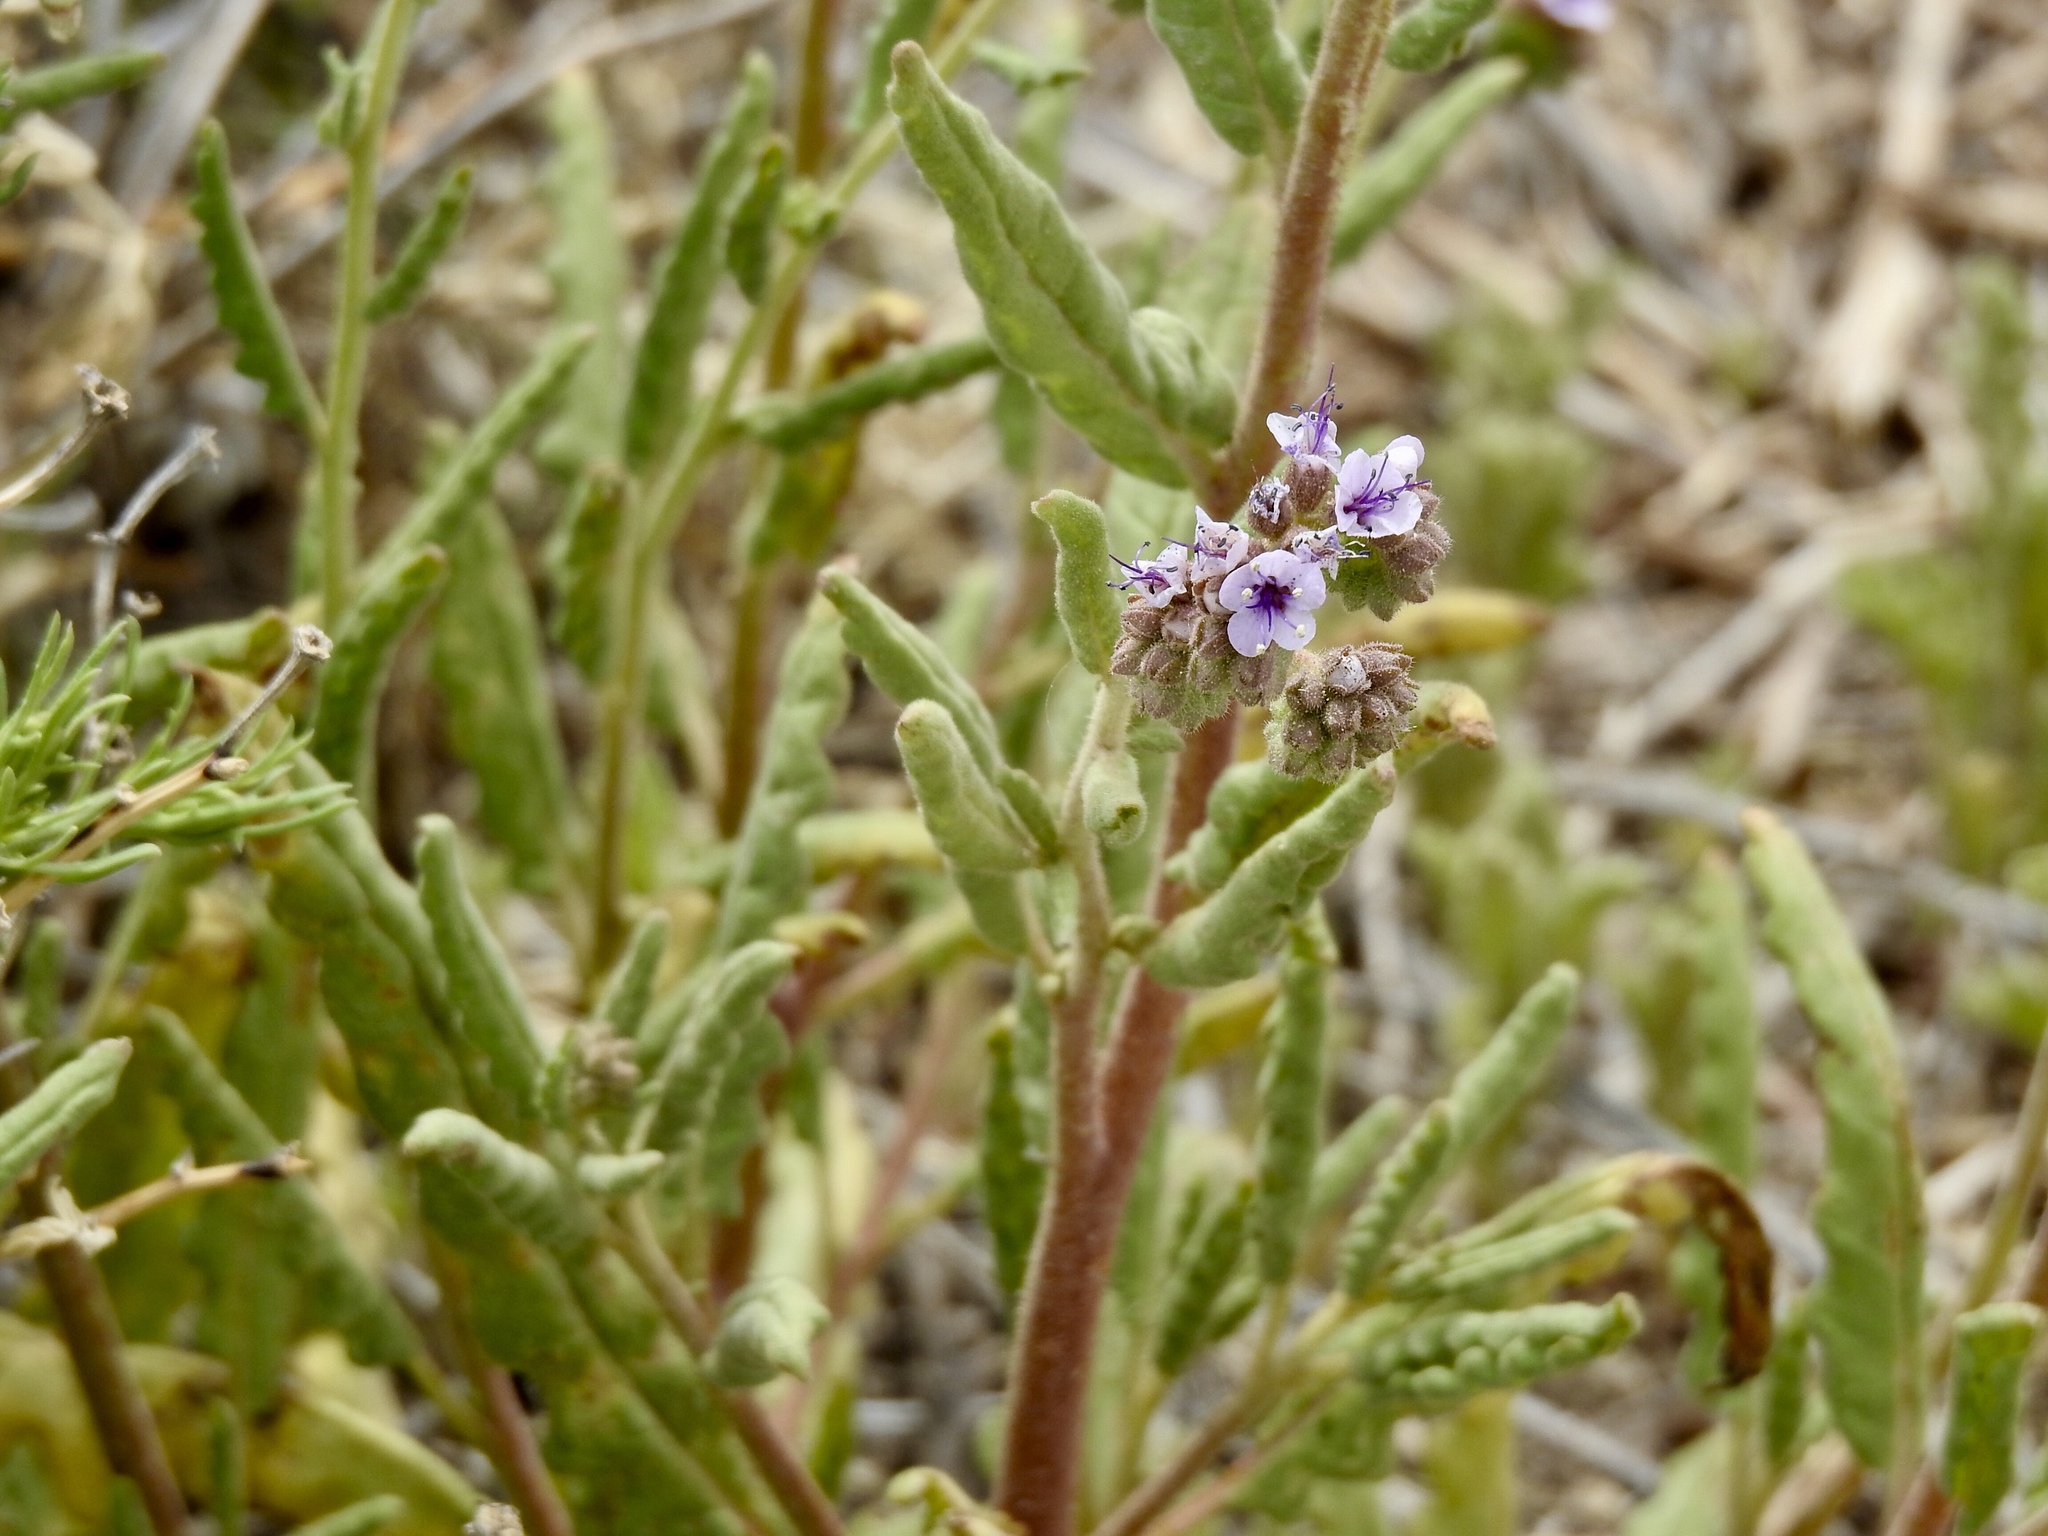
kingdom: Plantae
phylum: Tracheophyta
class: Magnoliopsida
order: Boraginales
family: Hydrophyllaceae
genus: Phacelia
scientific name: Phacelia integrifolia
